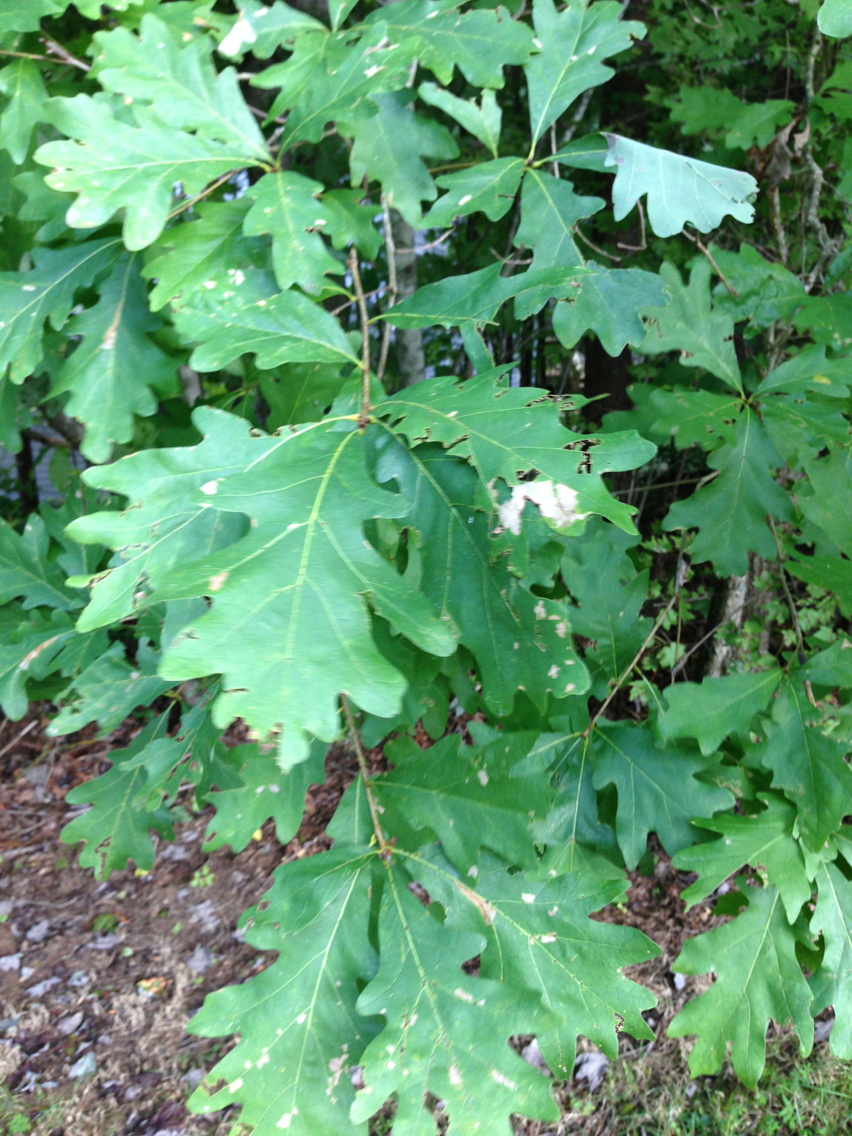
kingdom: Plantae
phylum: Tracheophyta
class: Magnoliopsida
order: Fagales
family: Fagaceae
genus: Quercus
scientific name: Quercus alba
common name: White oak
